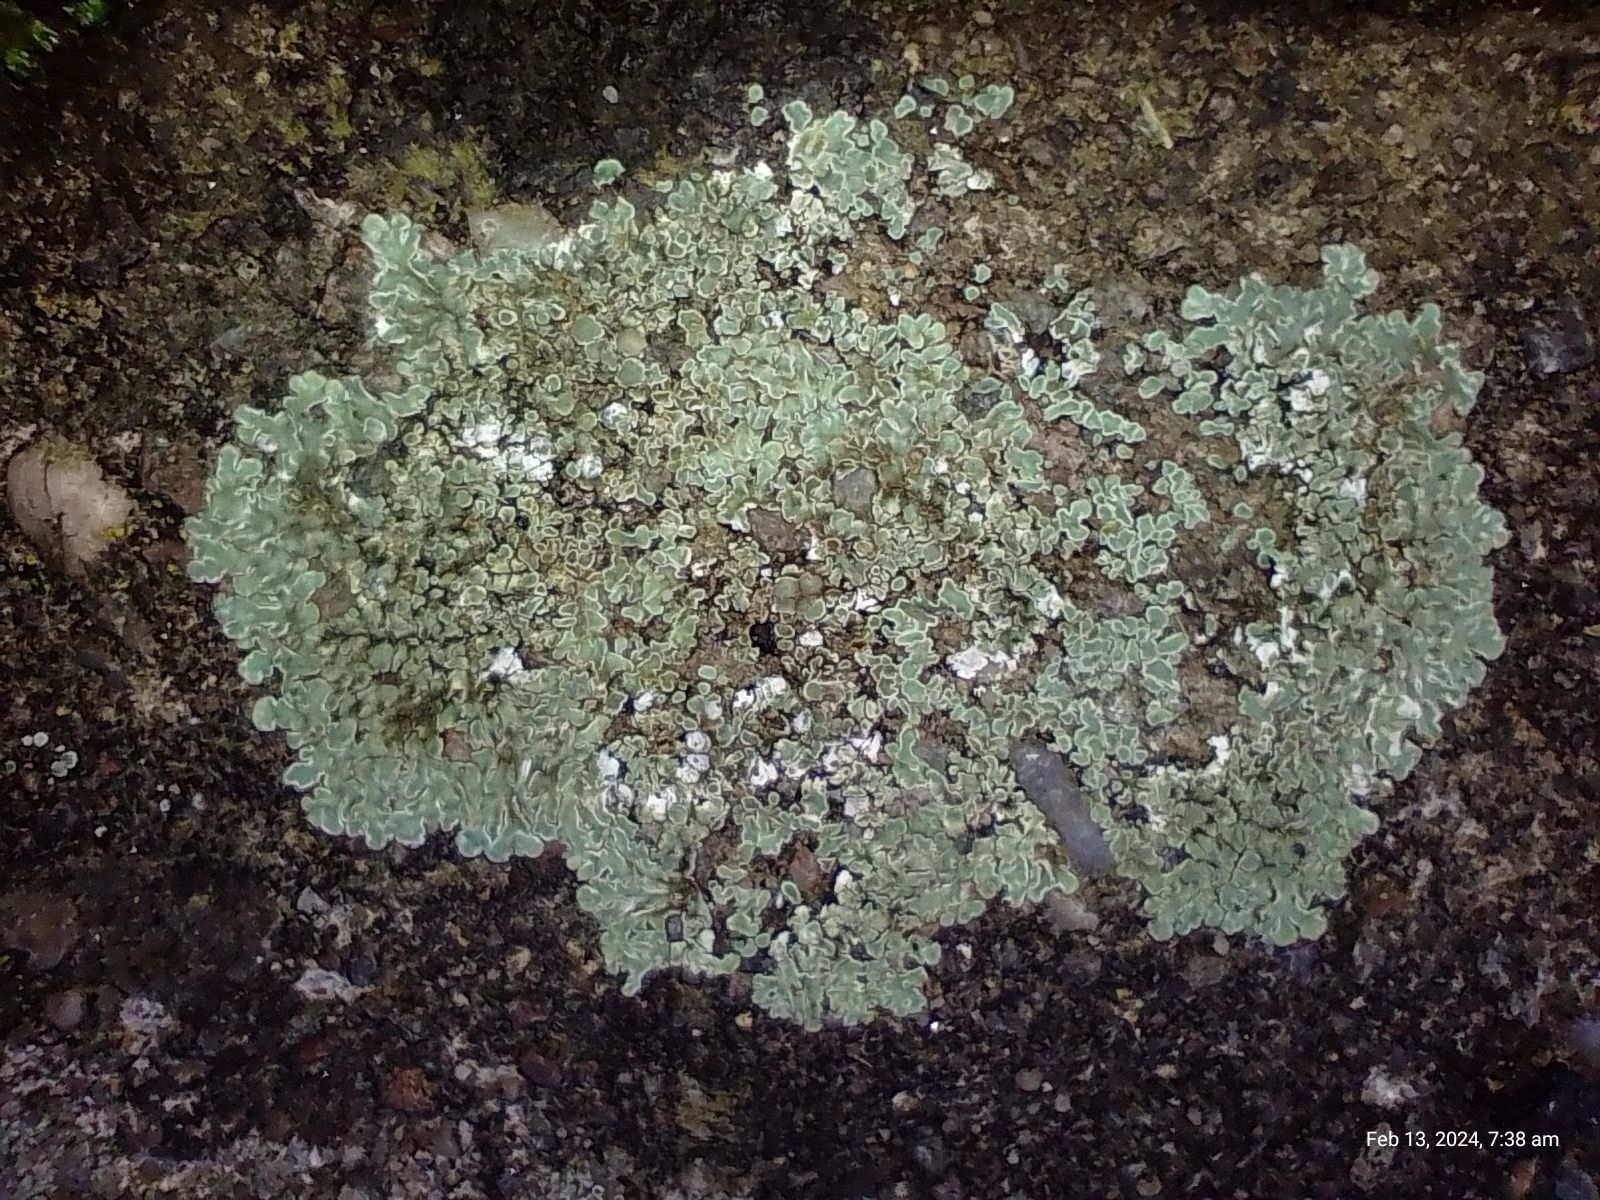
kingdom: Fungi
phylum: Ascomycota
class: Lecanoromycetes
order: Lecanorales
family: Lecanoraceae
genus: Protoparmeliopsis
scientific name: Protoparmeliopsis muralis
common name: Stonewall rim lichen
